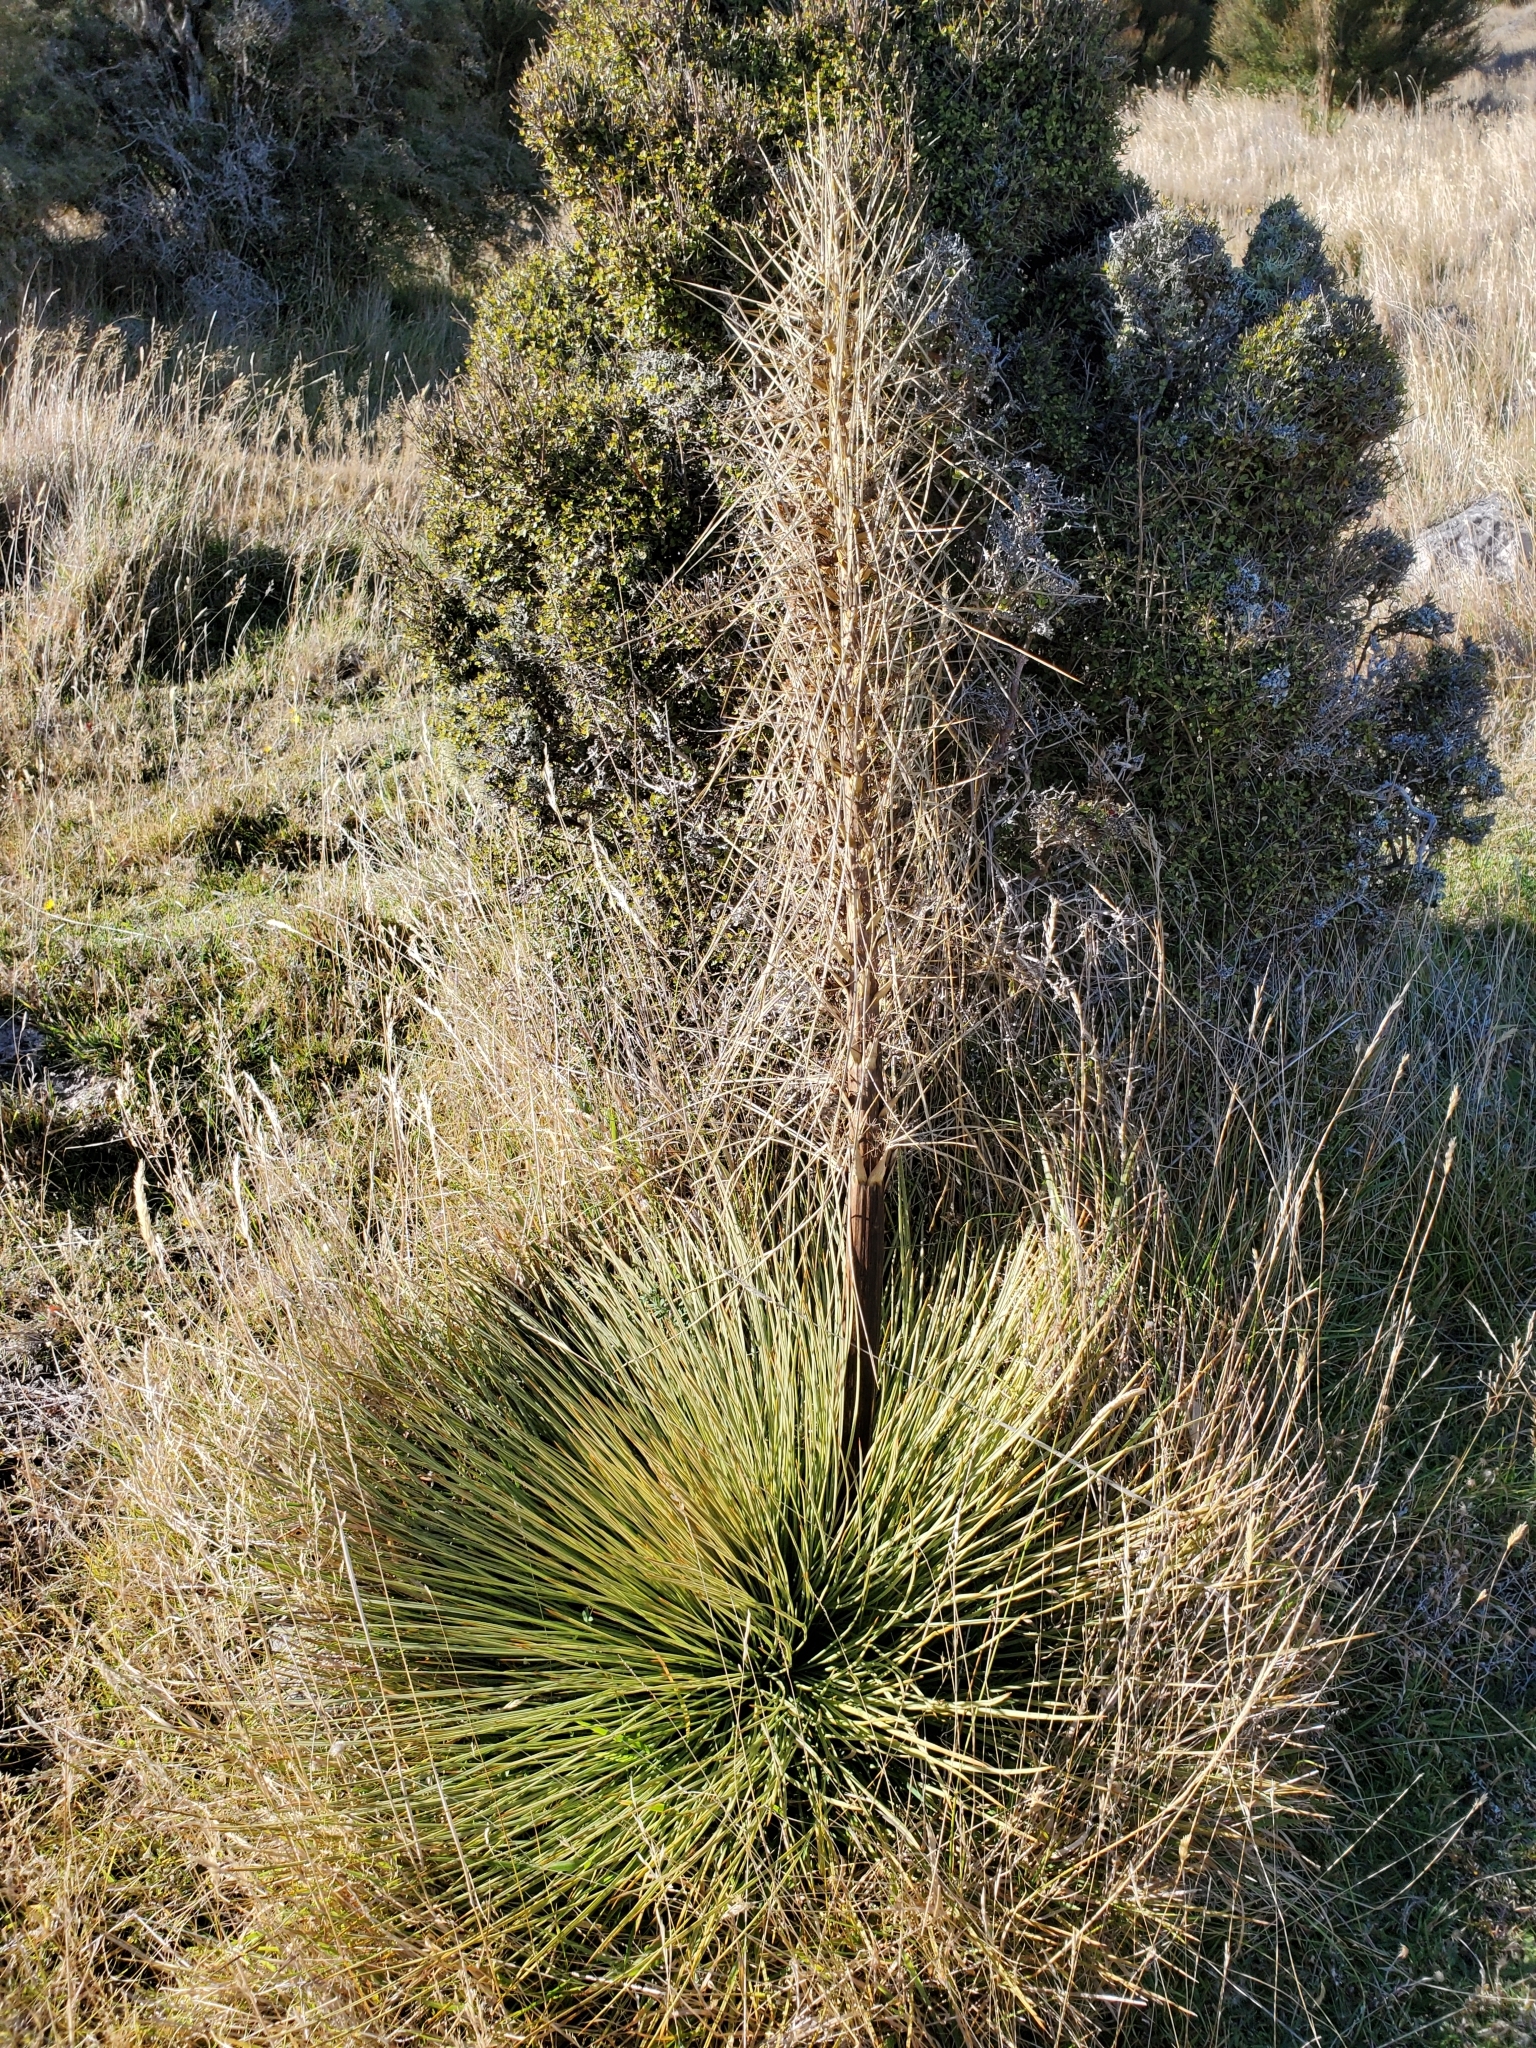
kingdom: Plantae
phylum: Tracheophyta
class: Magnoliopsida
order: Apiales
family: Apiaceae
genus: Aciphylla
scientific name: Aciphylla subflabellata
